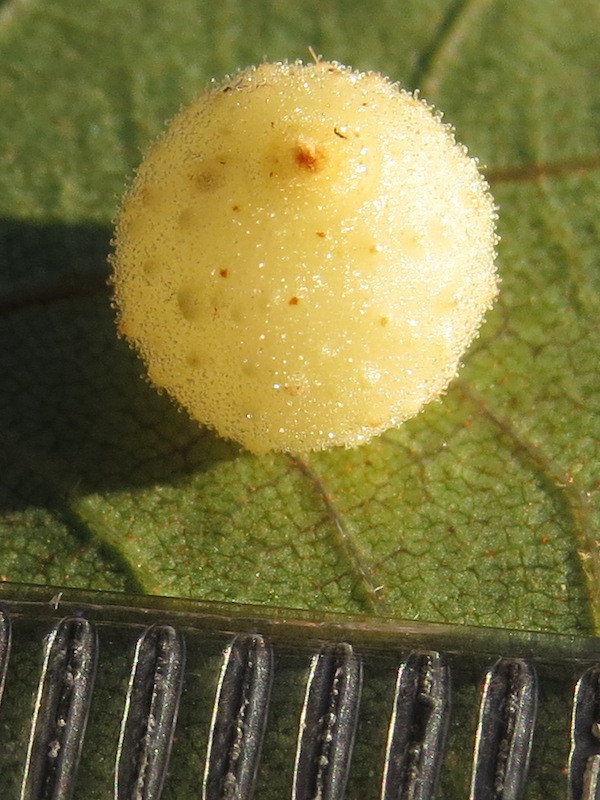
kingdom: Animalia
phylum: Arthropoda
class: Insecta
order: Diptera
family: Cecidomyiidae
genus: Caryomyia
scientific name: Caryomyia tuberidolium
